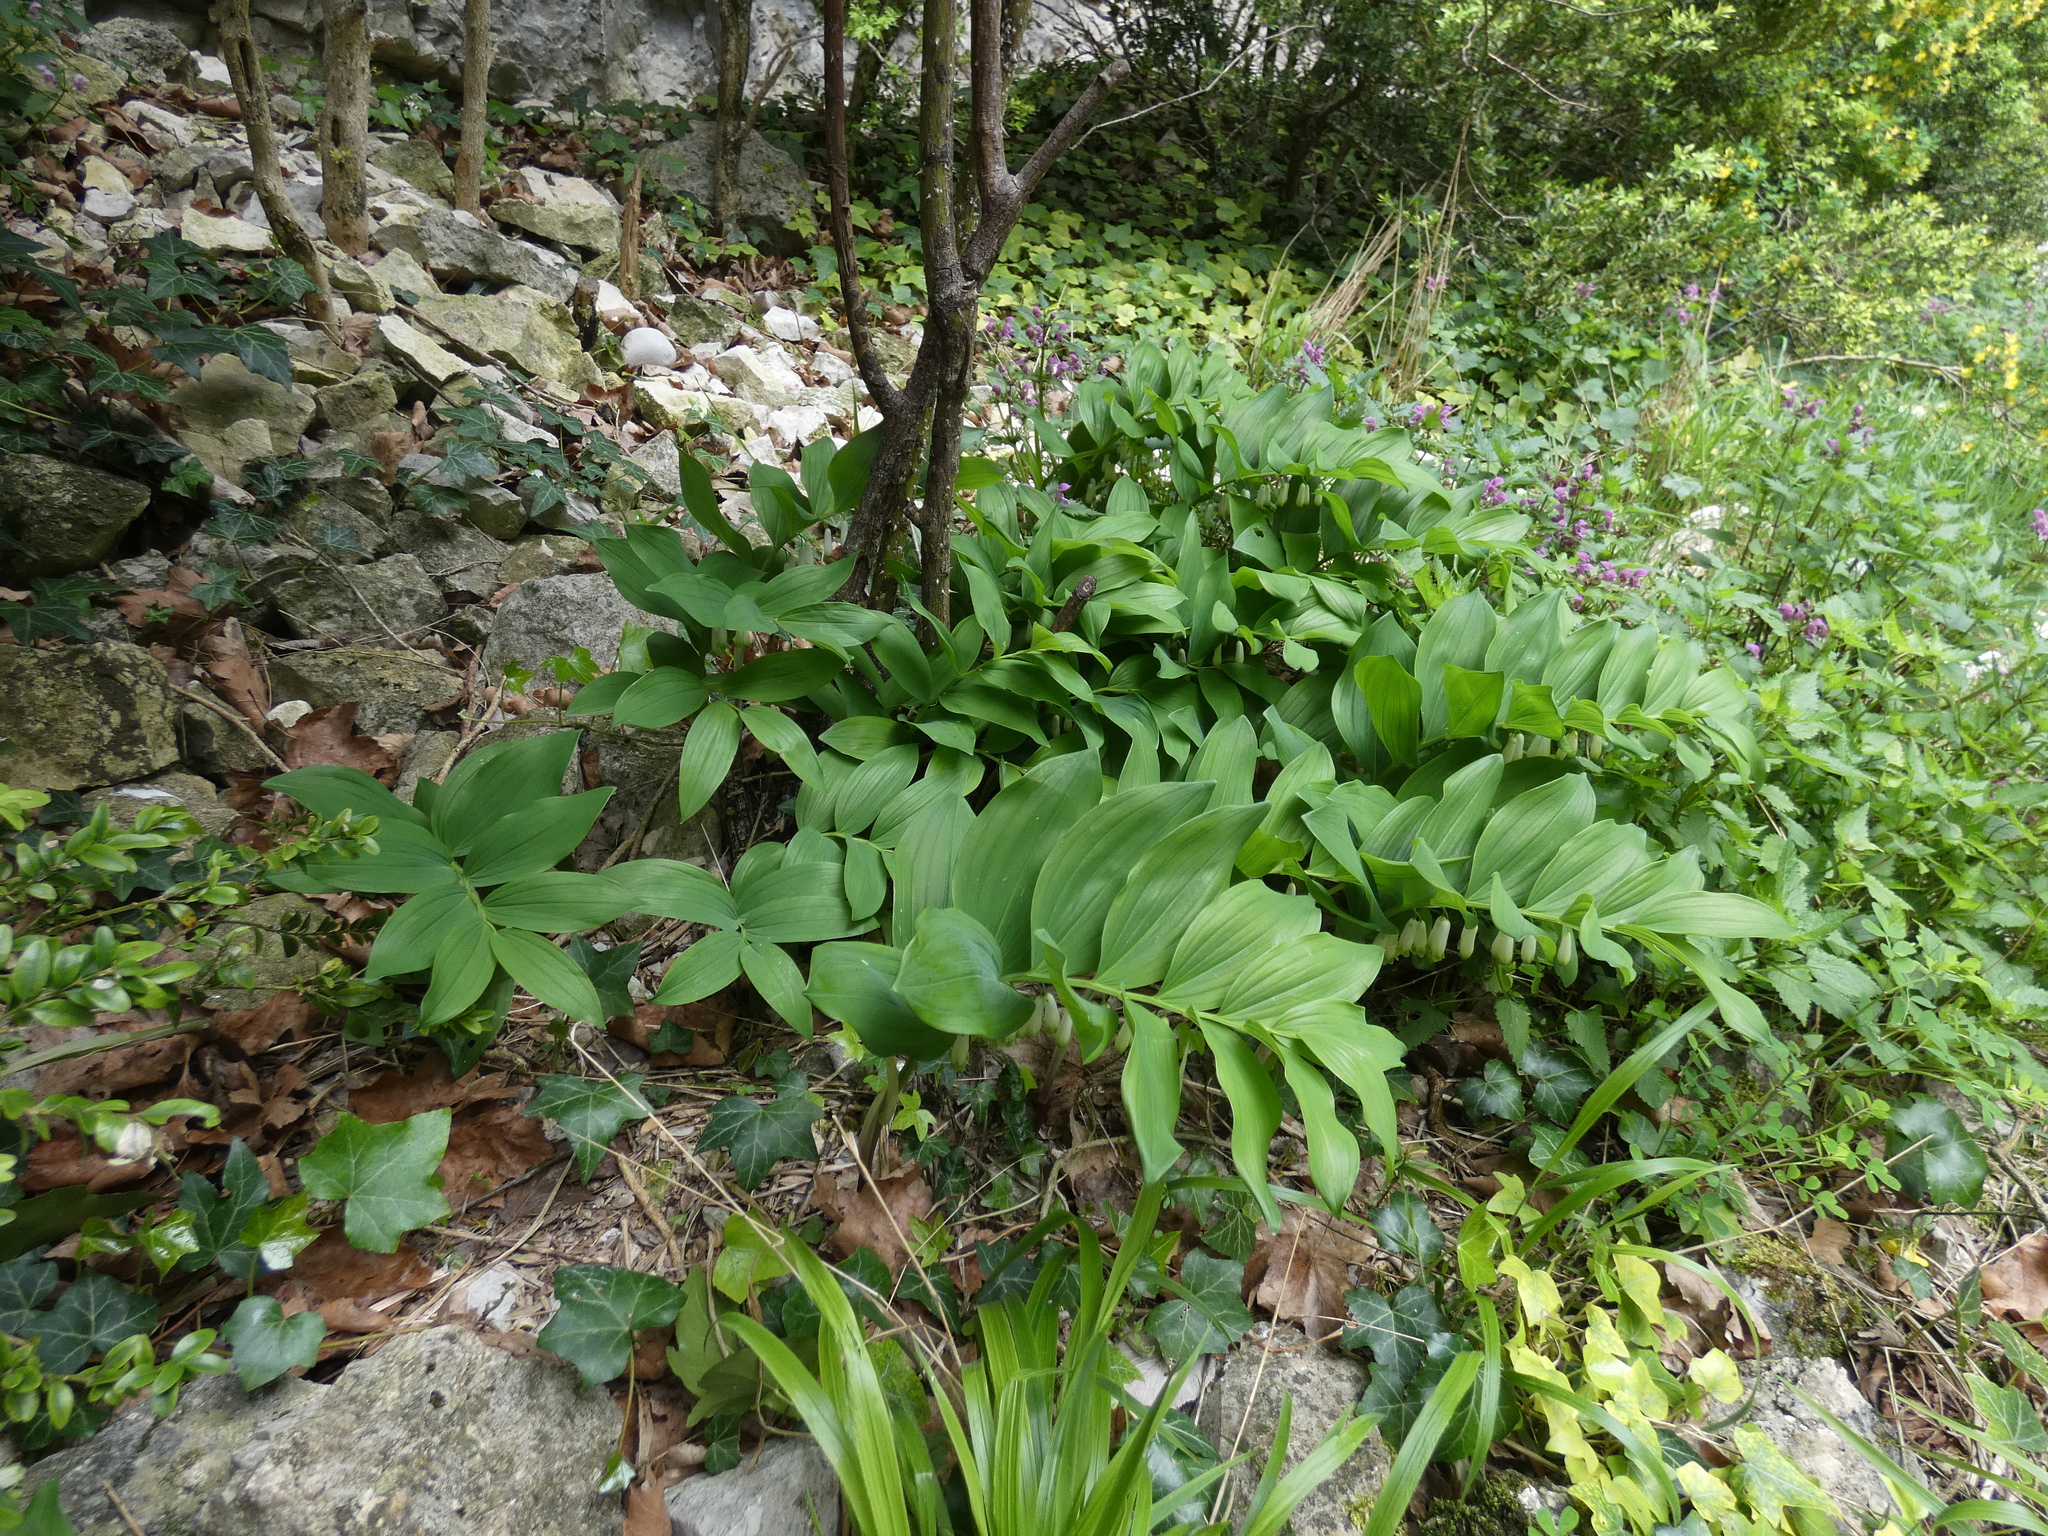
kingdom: Plantae
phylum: Tracheophyta
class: Liliopsida
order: Asparagales
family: Asparagaceae
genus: Polygonatum
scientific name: Polygonatum odoratum
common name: Angular solomon's-seal
